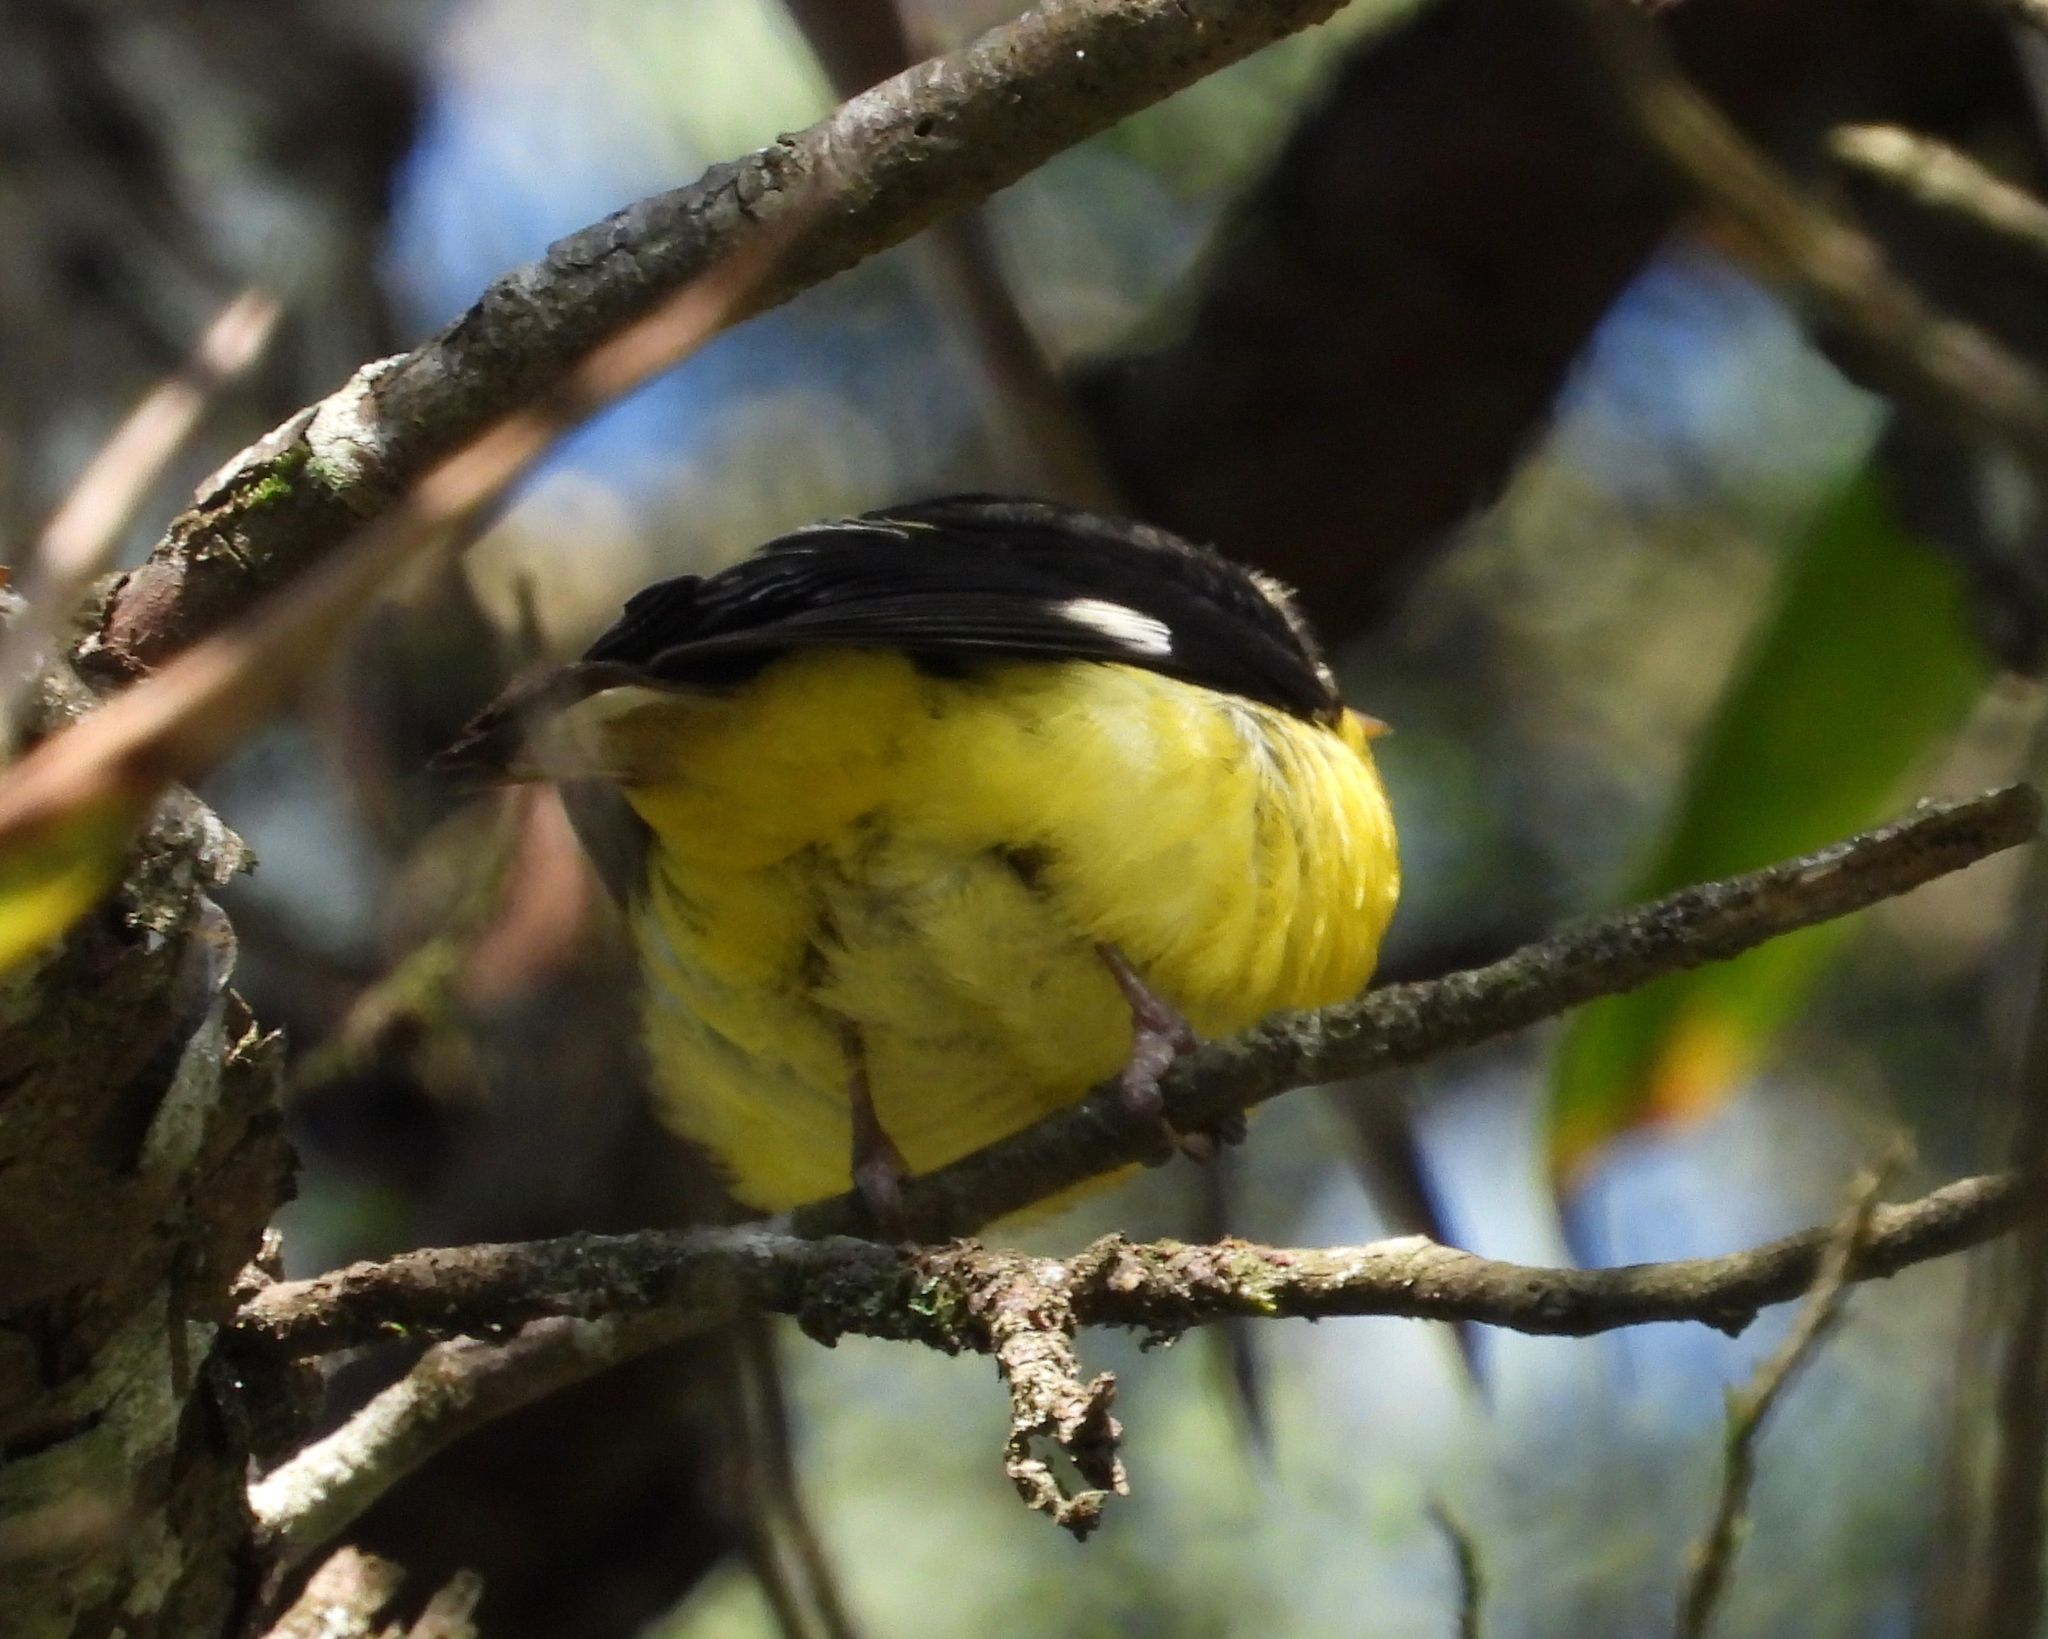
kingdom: Animalia
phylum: Chordata
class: Aves
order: Passeriformes
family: Fringillidae
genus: Spinus
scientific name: Spinus psaltria
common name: Lesser goldfinch
